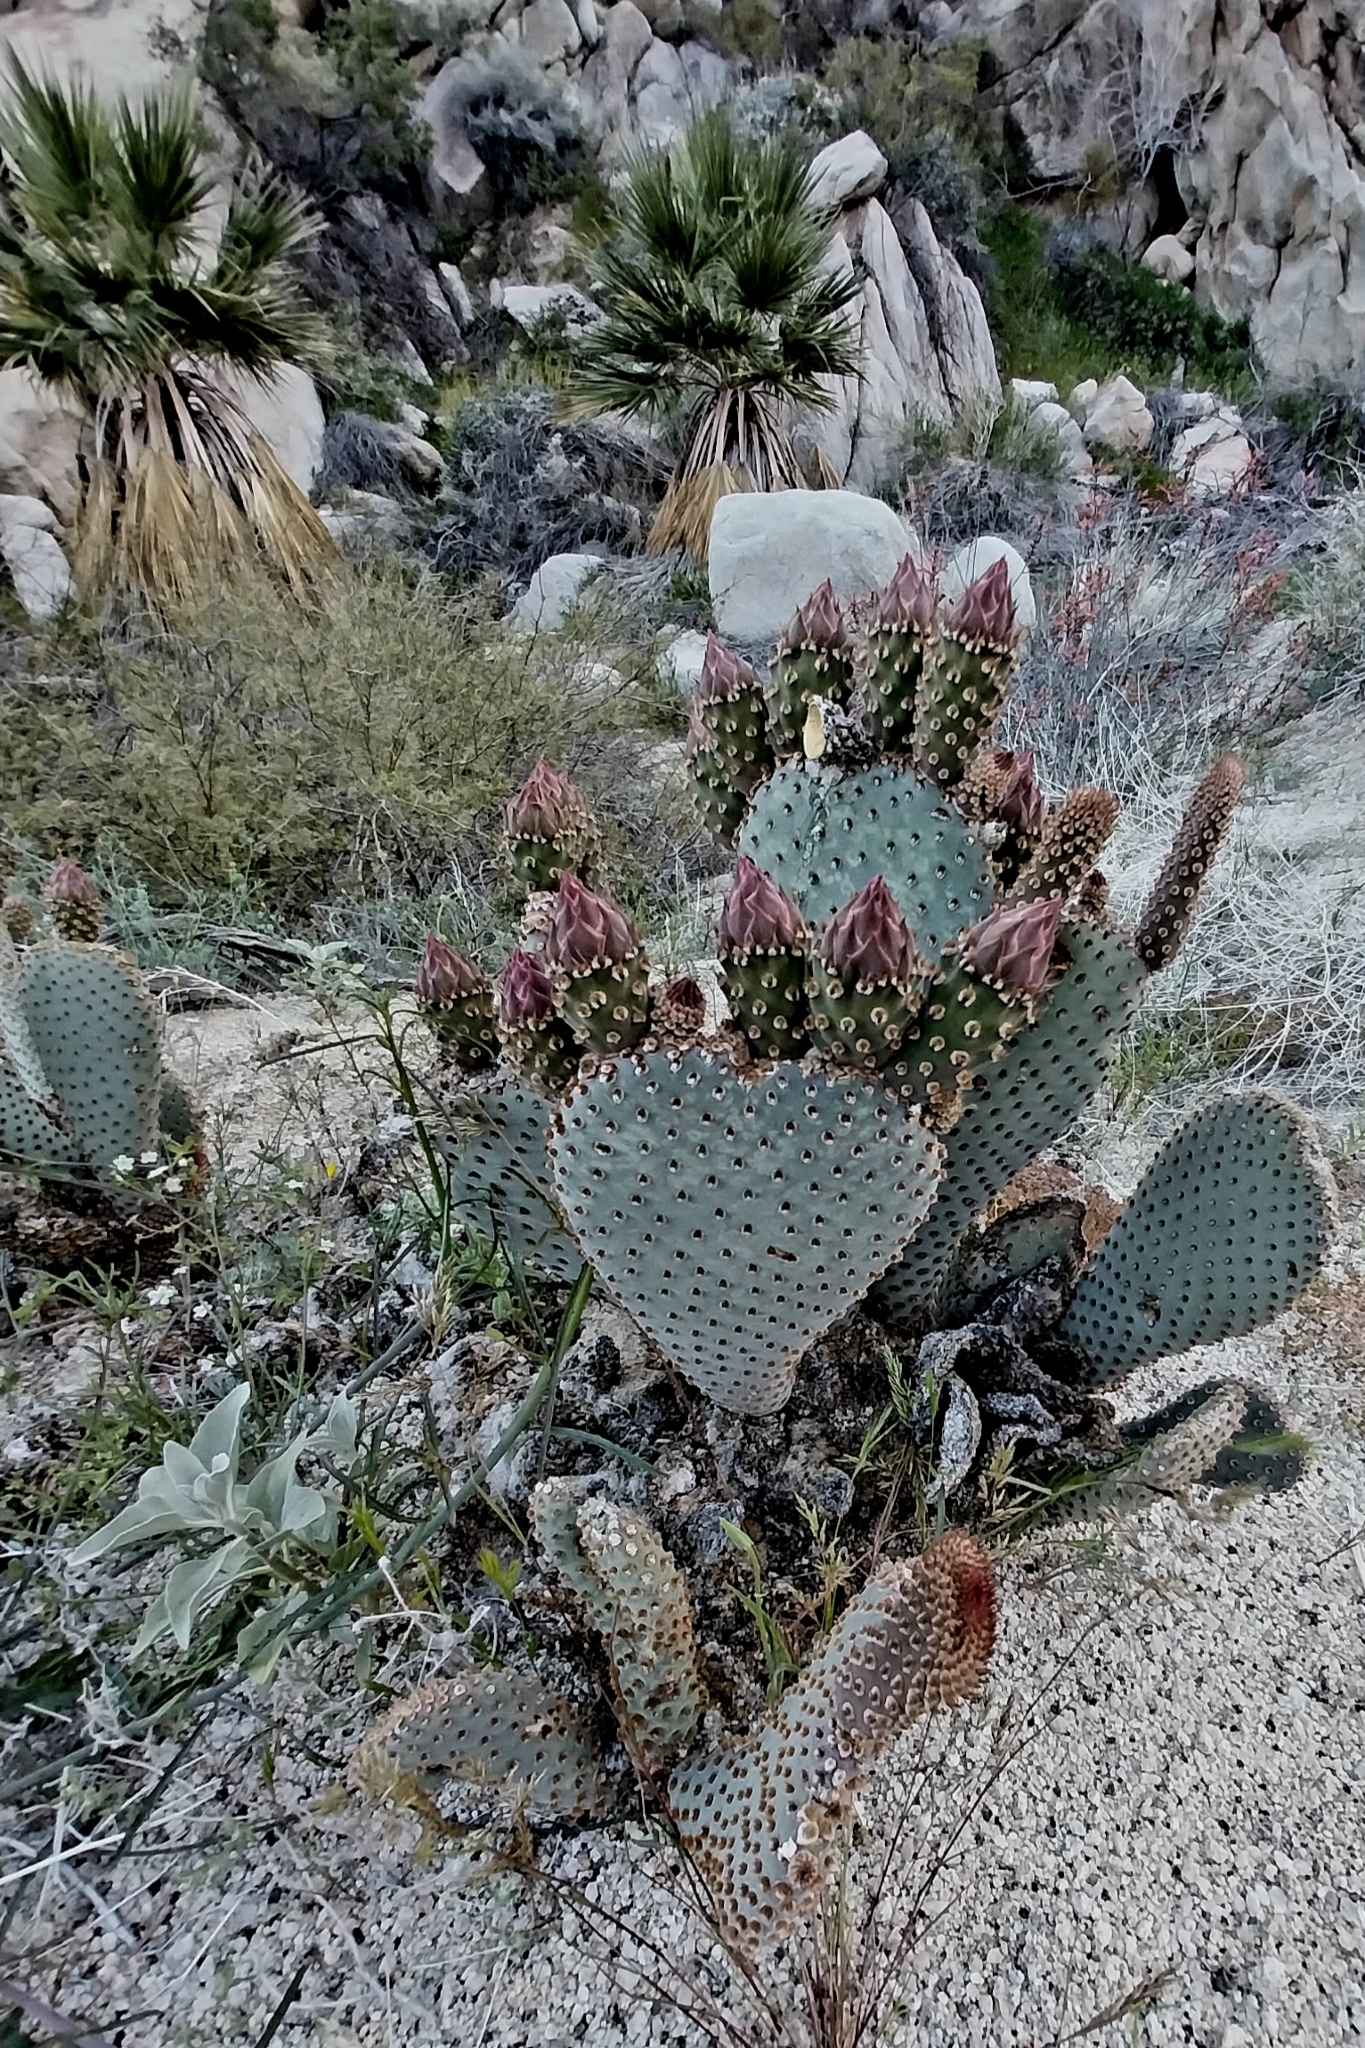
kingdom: Plantae
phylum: Tracheophyta
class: Magnoliopsida
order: Caryophyllales
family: Cactaceae
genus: Opuntia
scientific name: Opuntia basilaris
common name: Beavertail prickly-pear
